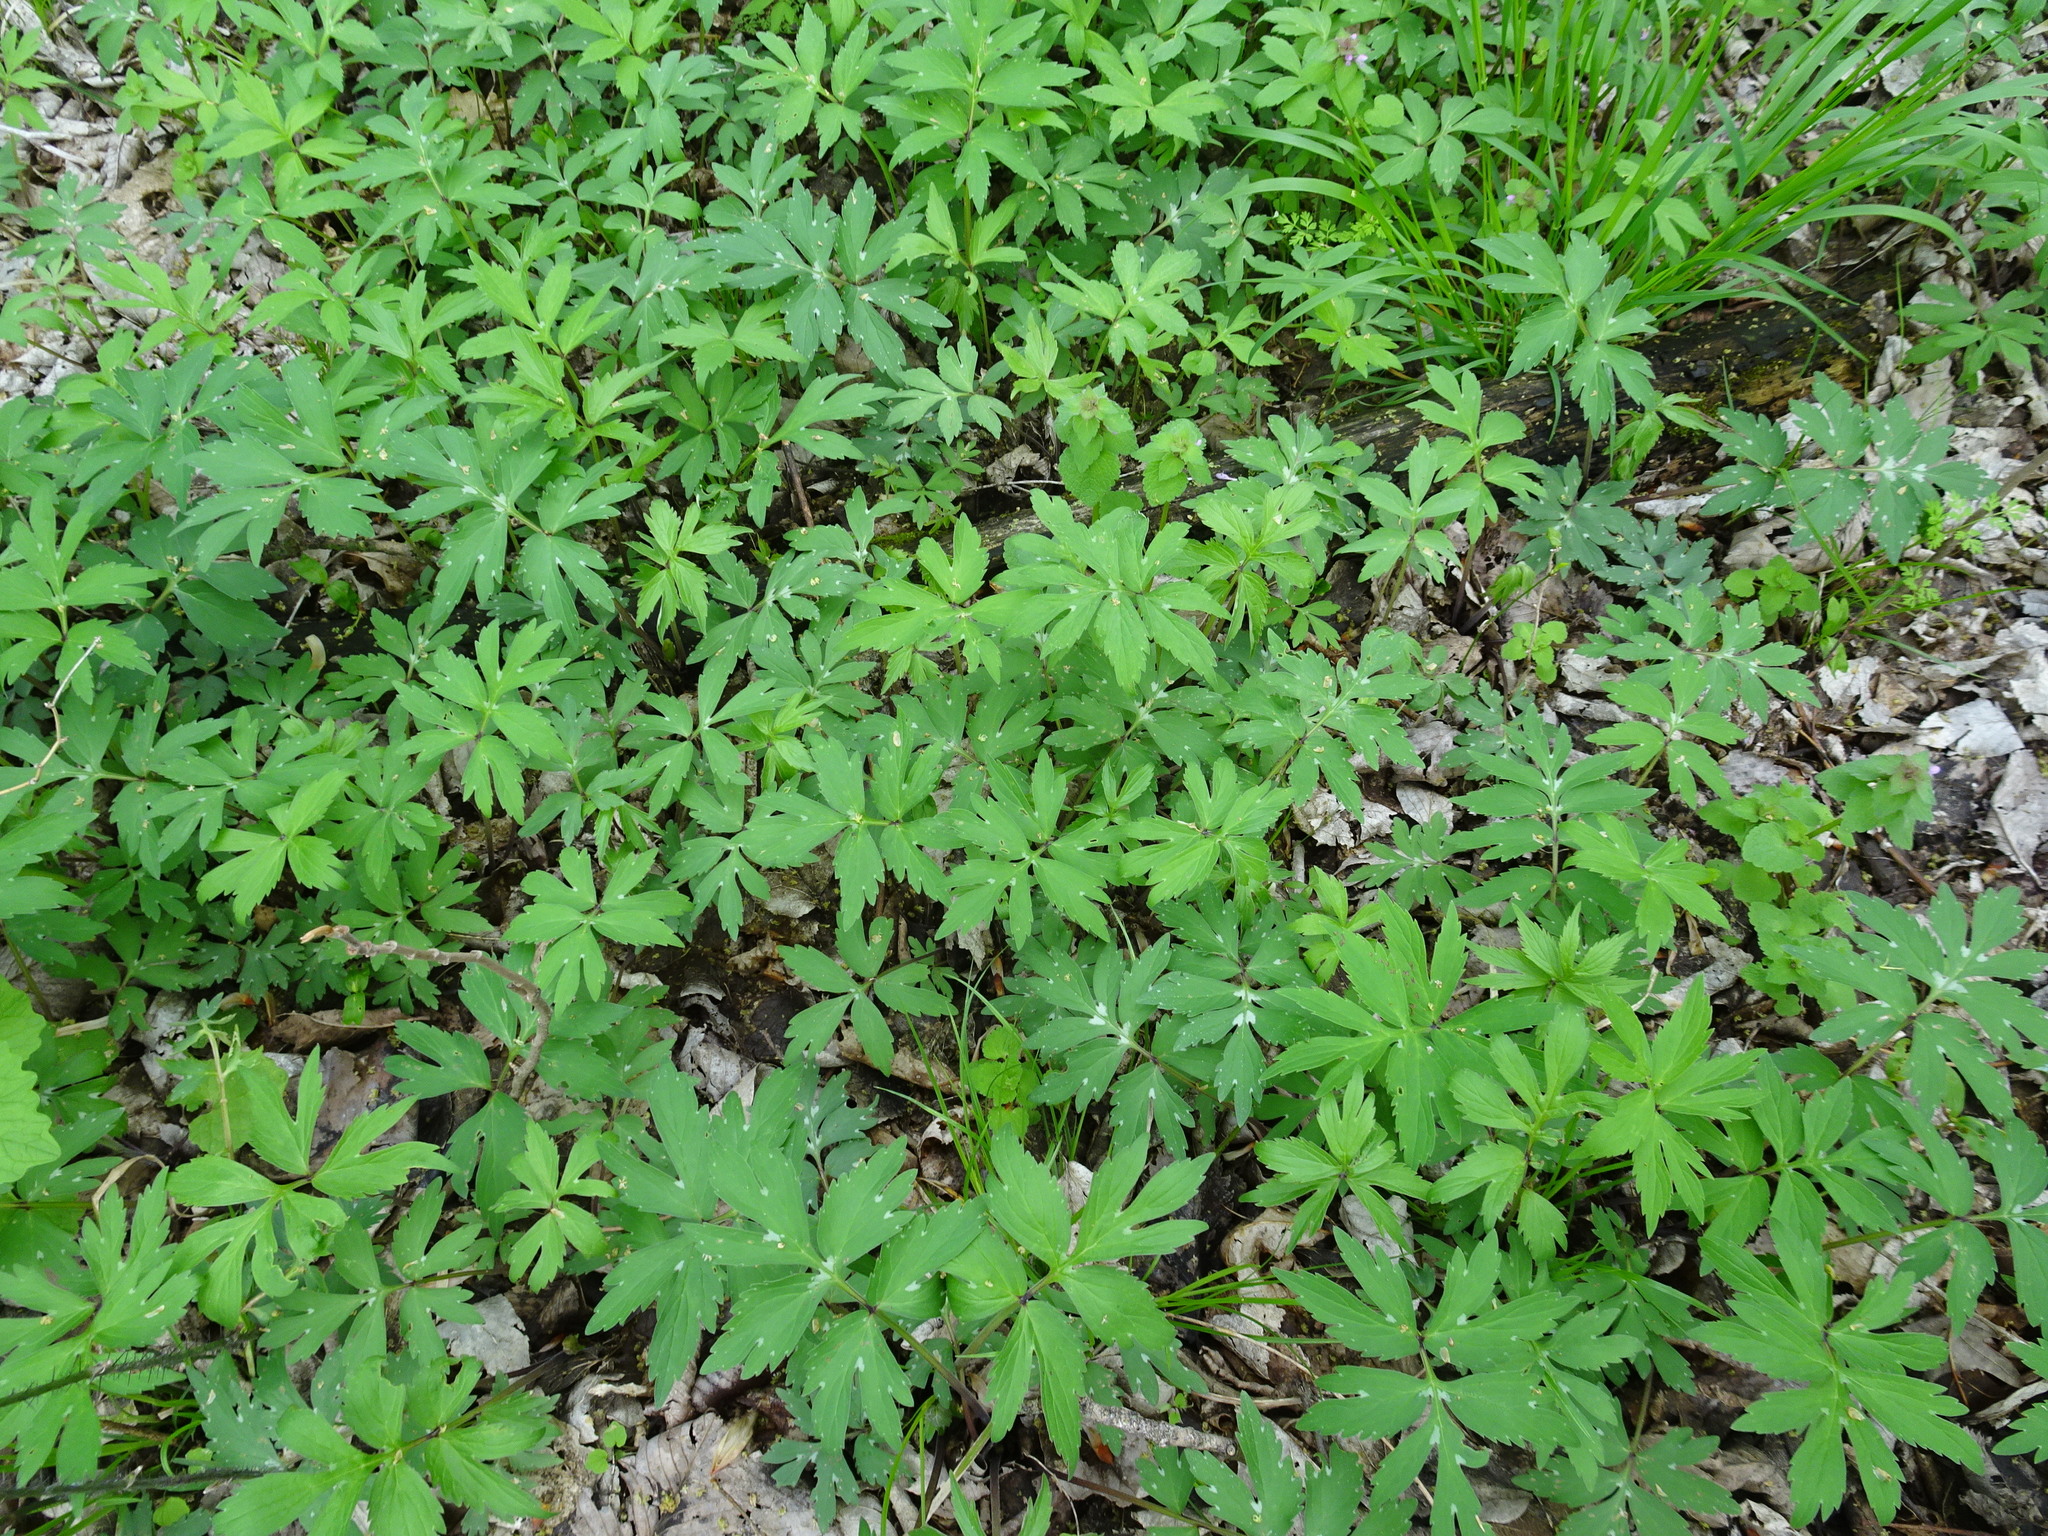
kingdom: Plantae
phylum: Tracheophyta
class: Magnoliopsida
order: Boraginales
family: Hydrophyllaceae
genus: Hydrophyllum
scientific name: Hydrophyllum virginianum
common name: Virginia waterleaf
